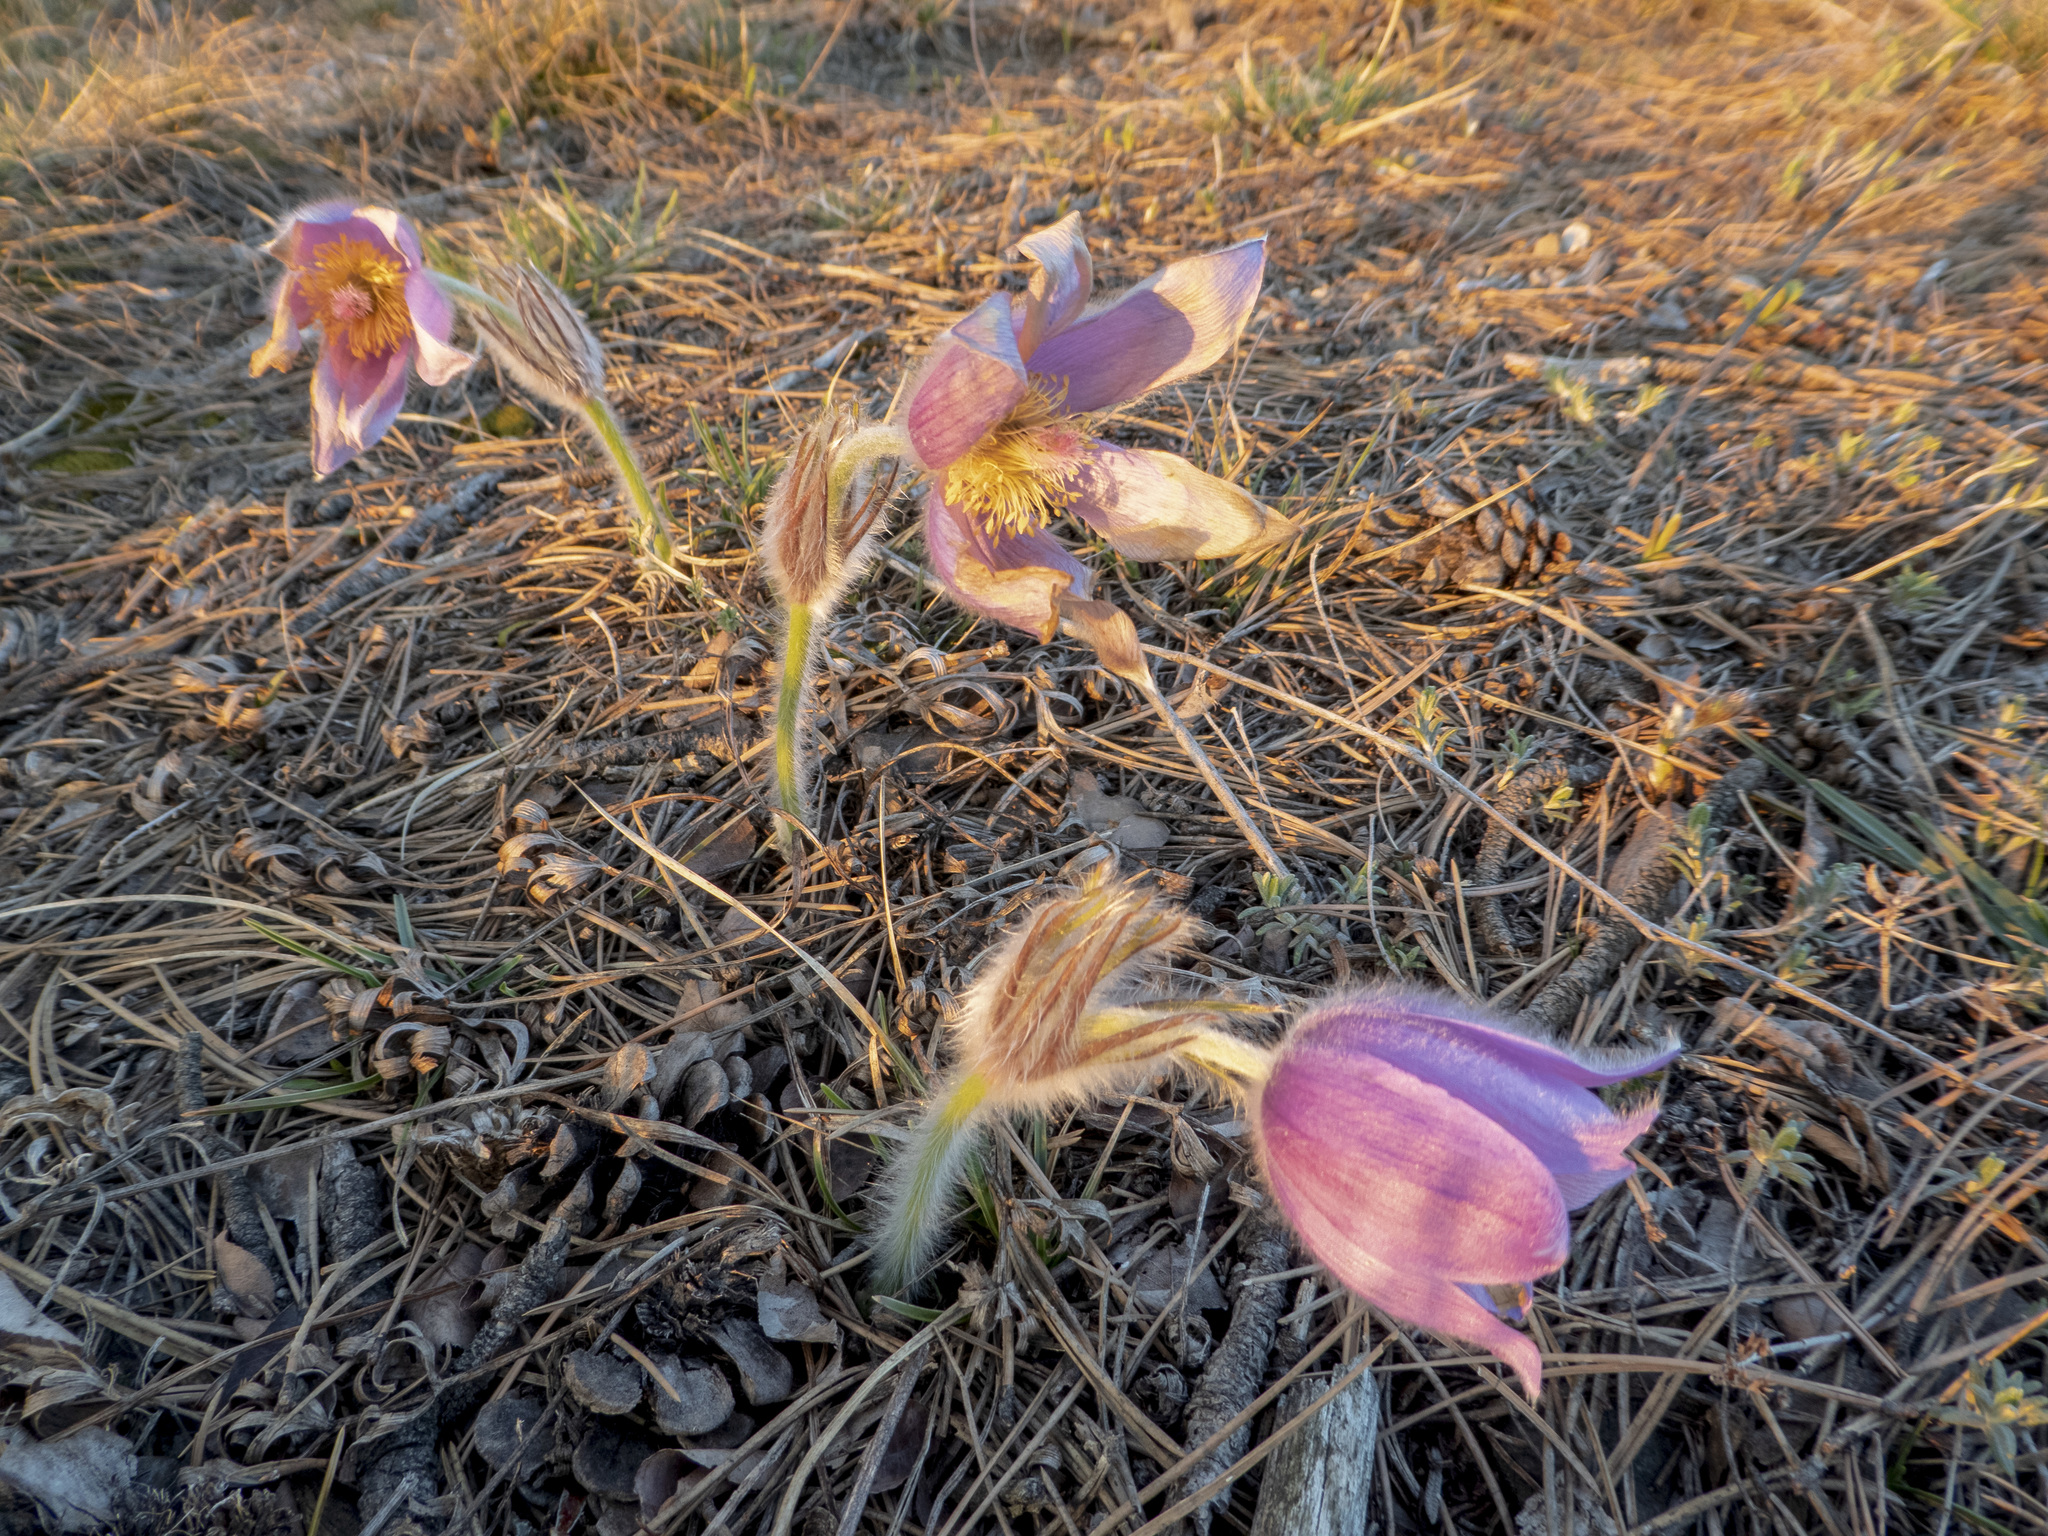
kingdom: Plantae
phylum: Tracheophyta
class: Magnoliopsida
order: Ranunculales
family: Ranunculaceae
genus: Pulsatilla
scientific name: Pulsatilla grandis
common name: Greater pasque flower
